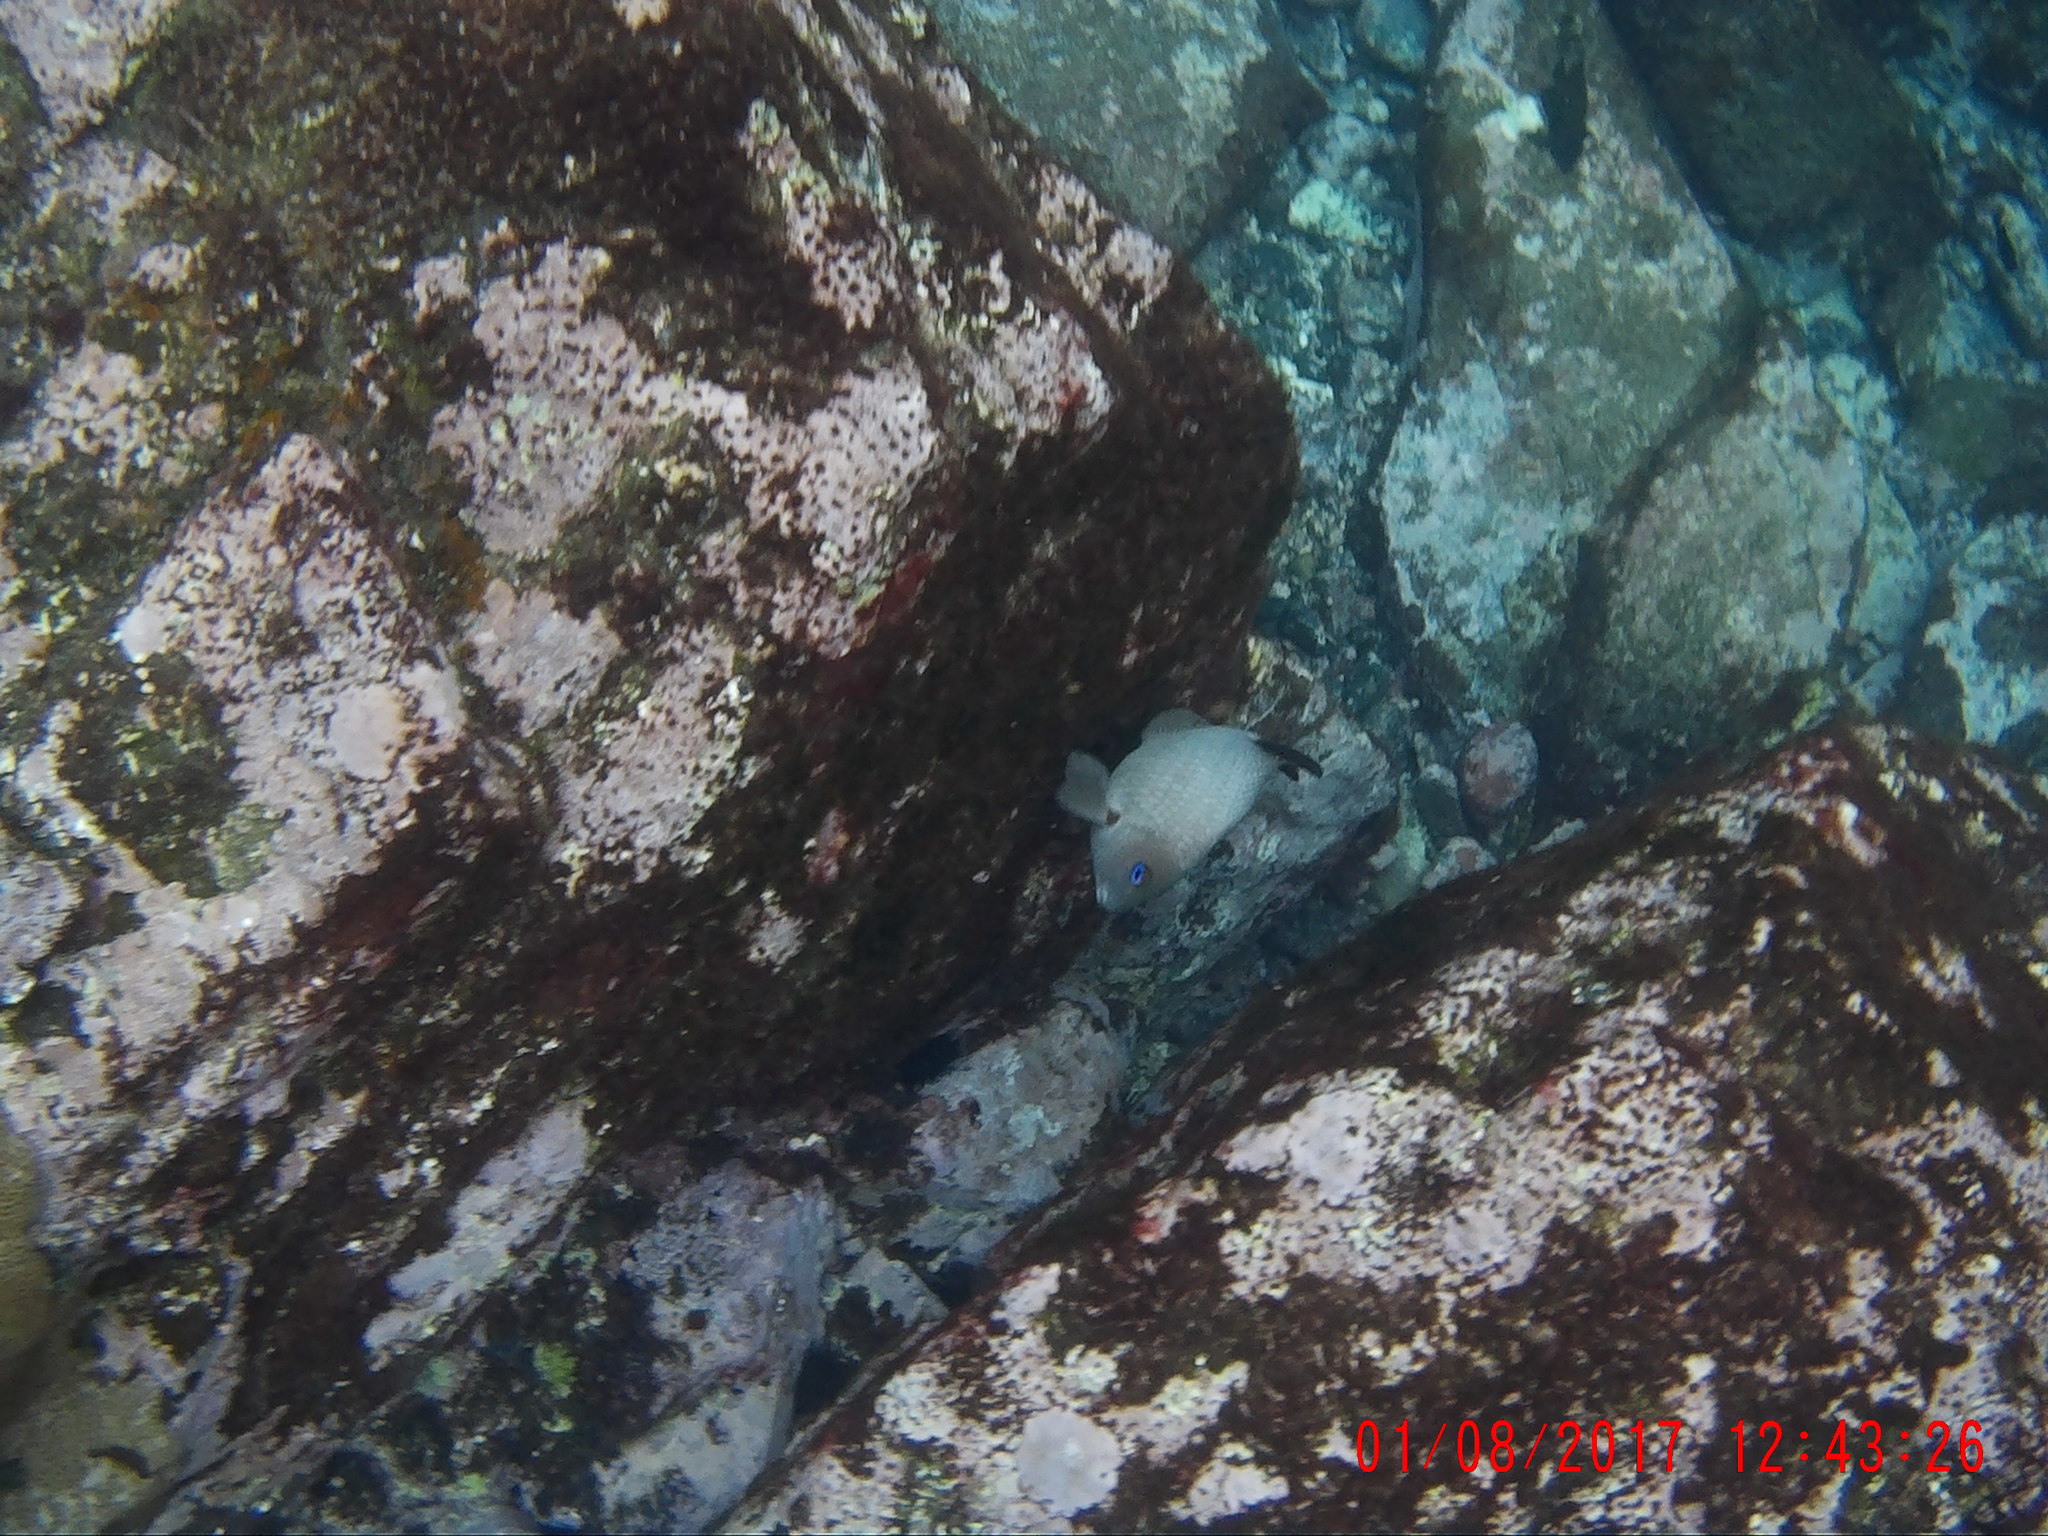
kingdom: Animalia
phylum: Chordata
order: Perciformes
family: Pomacentridae
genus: Microspathodon
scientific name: Microspathodon frontatus
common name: Guinean damselfish
